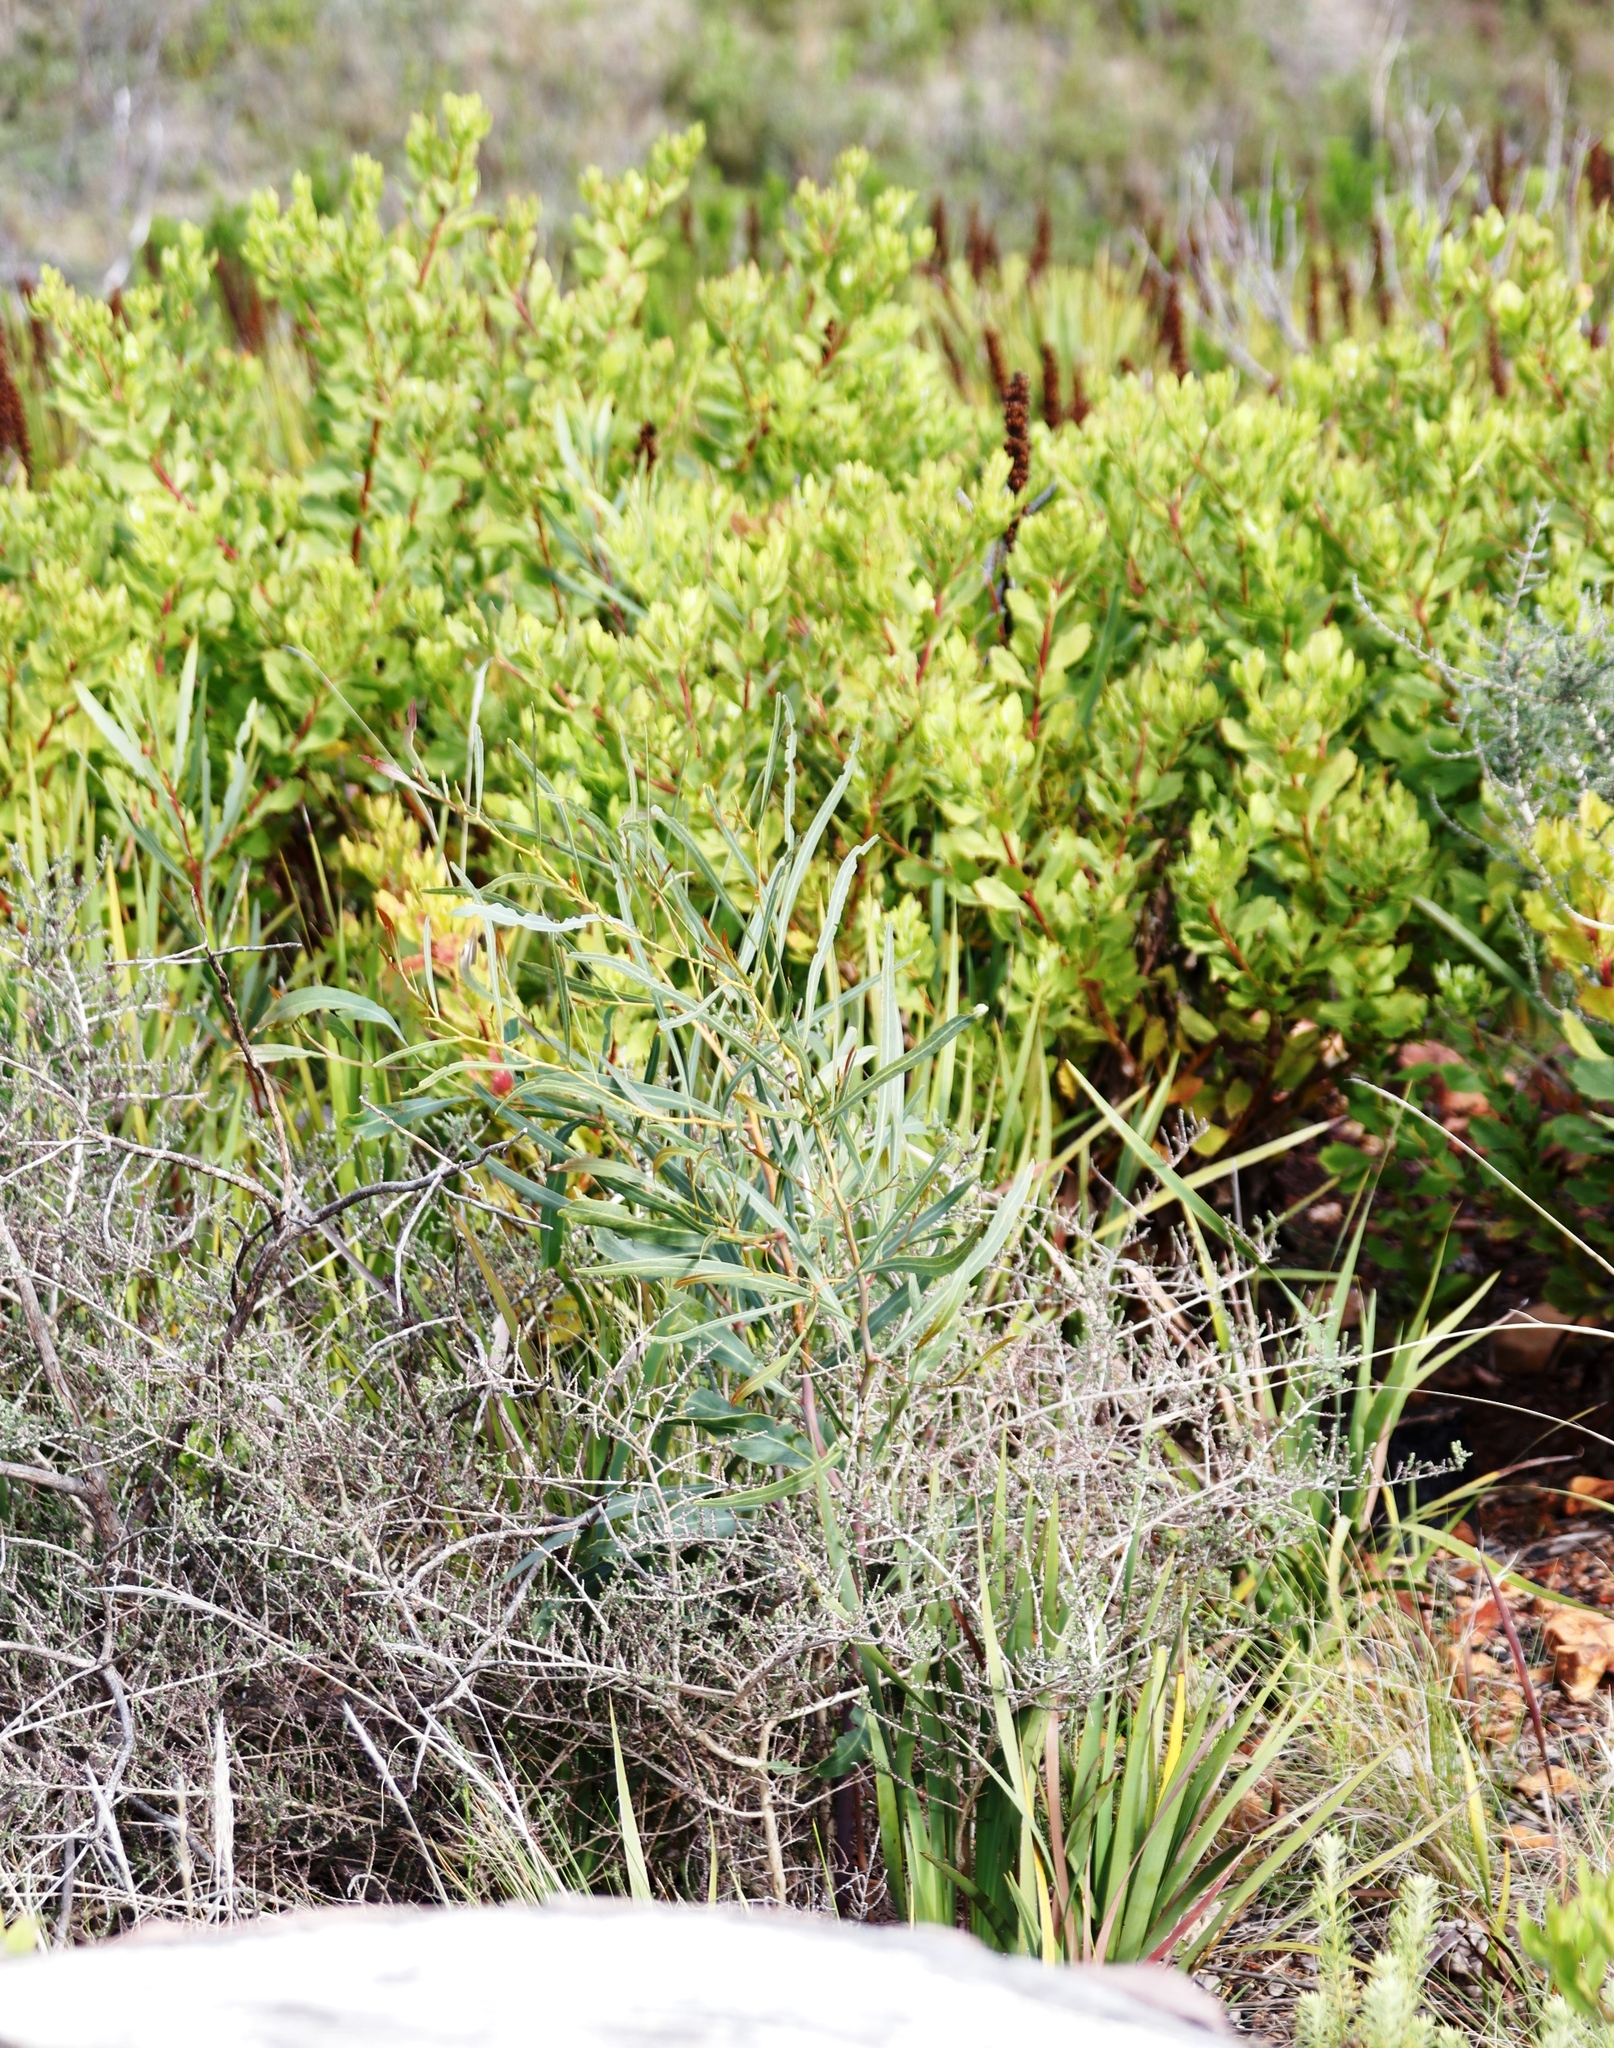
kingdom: Plantae
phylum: Tracheophyta
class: Magnoliopsida
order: Fabales
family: Fabaceae
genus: Acacia
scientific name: Acacia saligna
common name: Orange wattle
